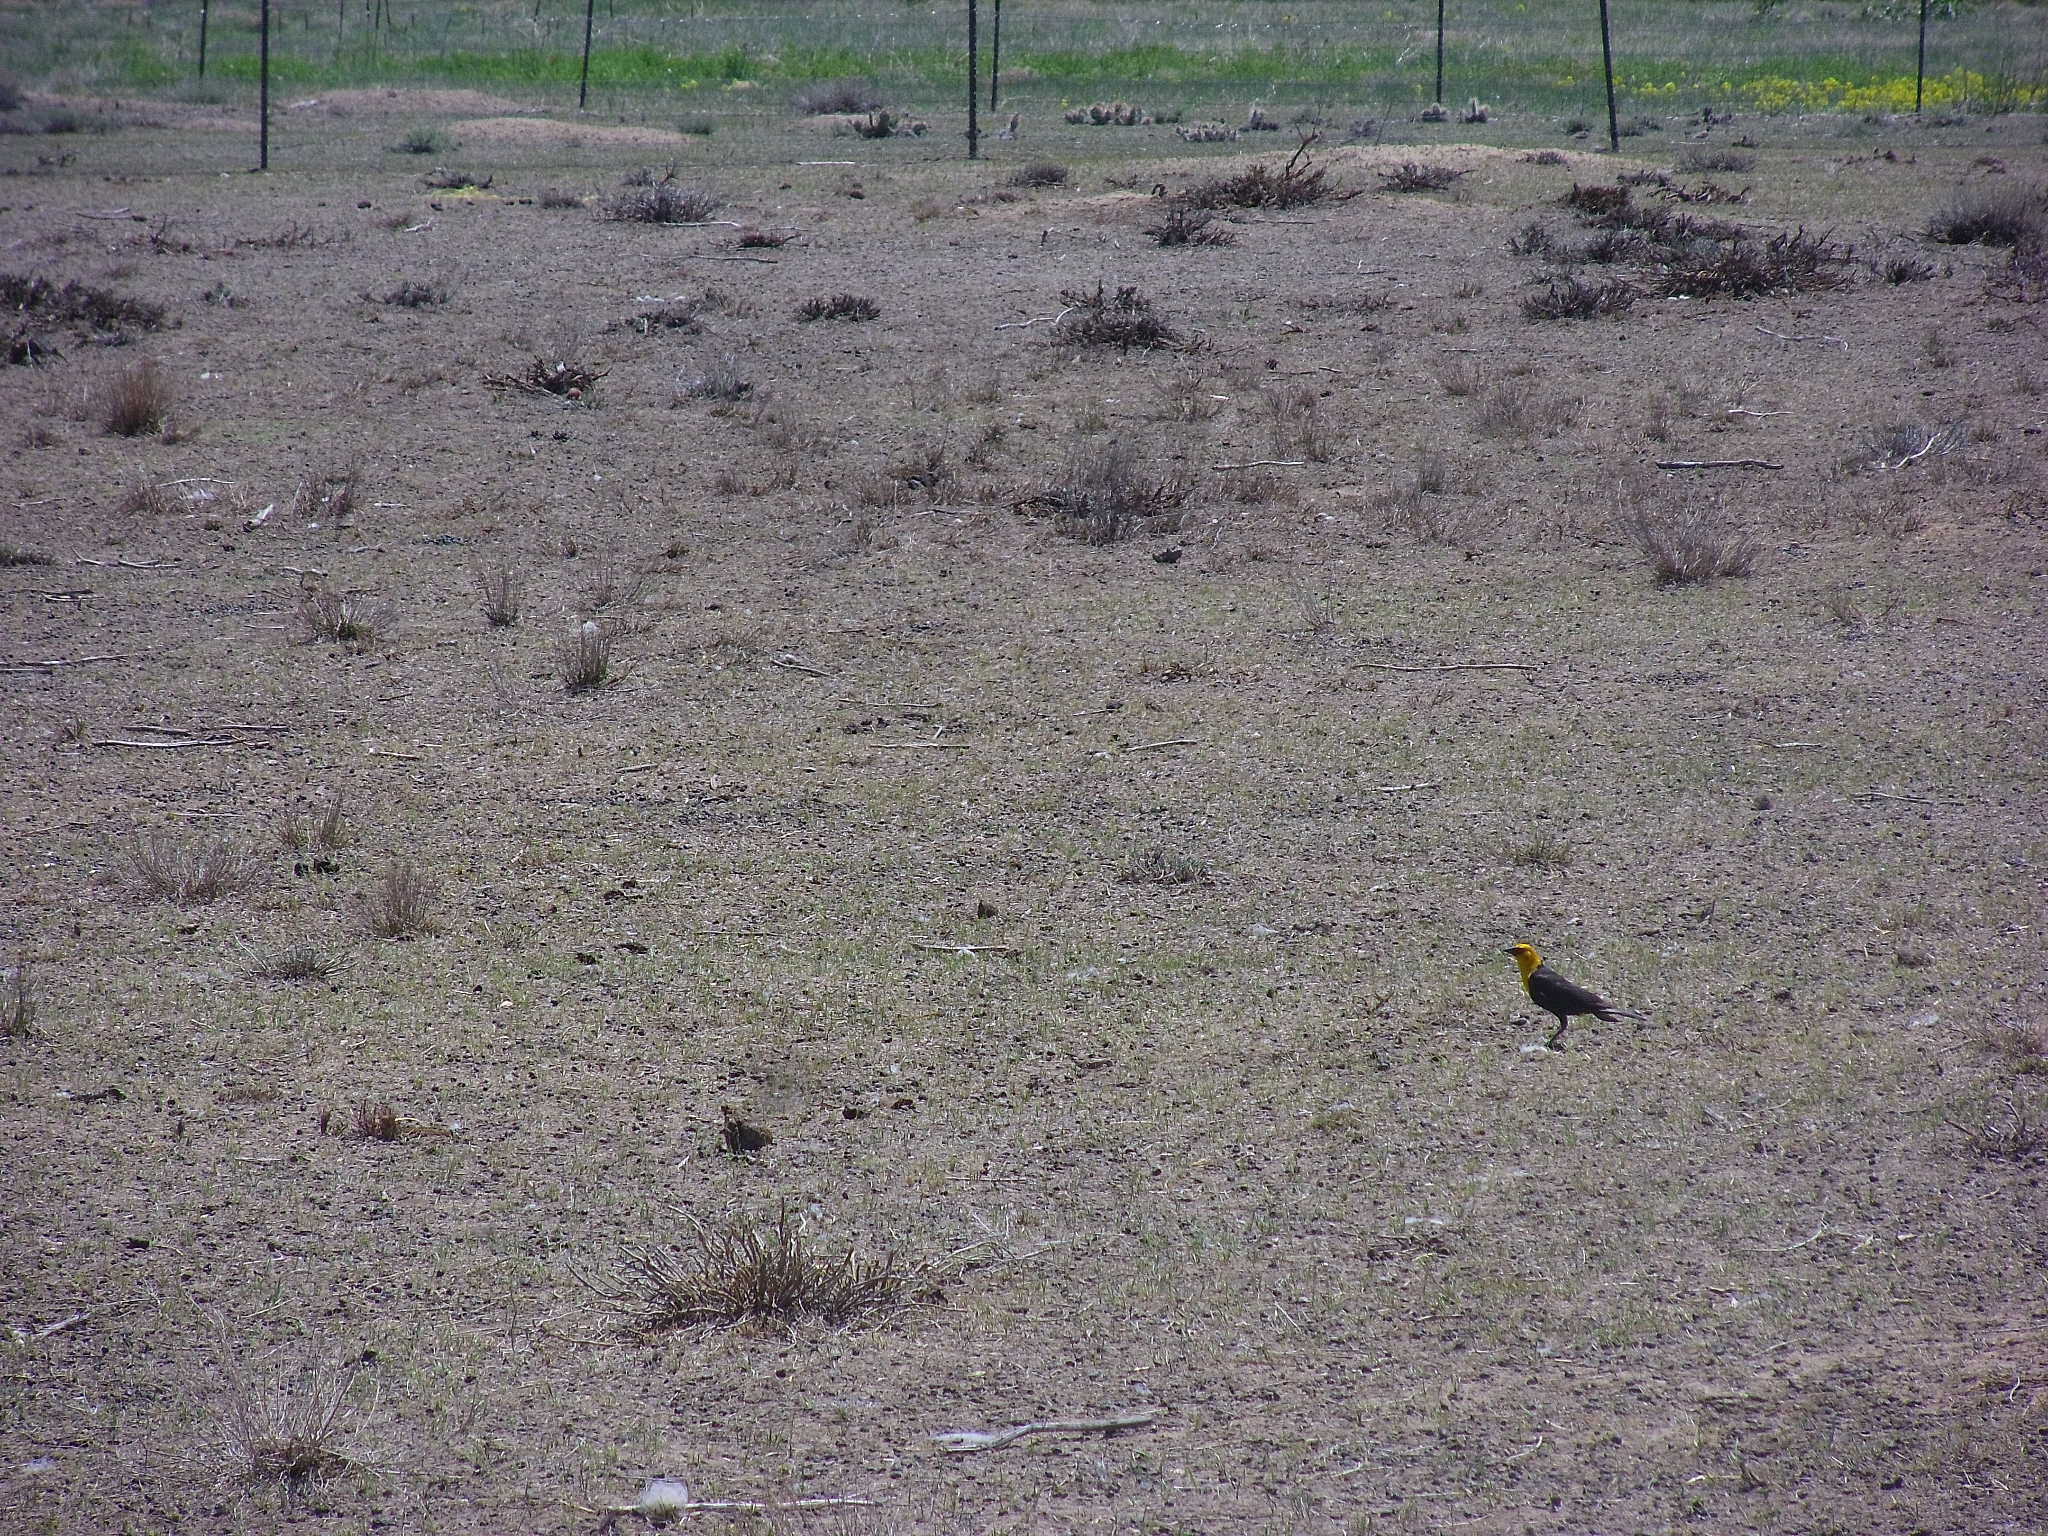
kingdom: Animalia
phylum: Chordata
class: Aves
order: Passeriformes
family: Icteridae
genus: Xanthocephalus
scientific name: Xanthocephalus xanthocephalus
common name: Yellow-headed blackbird
